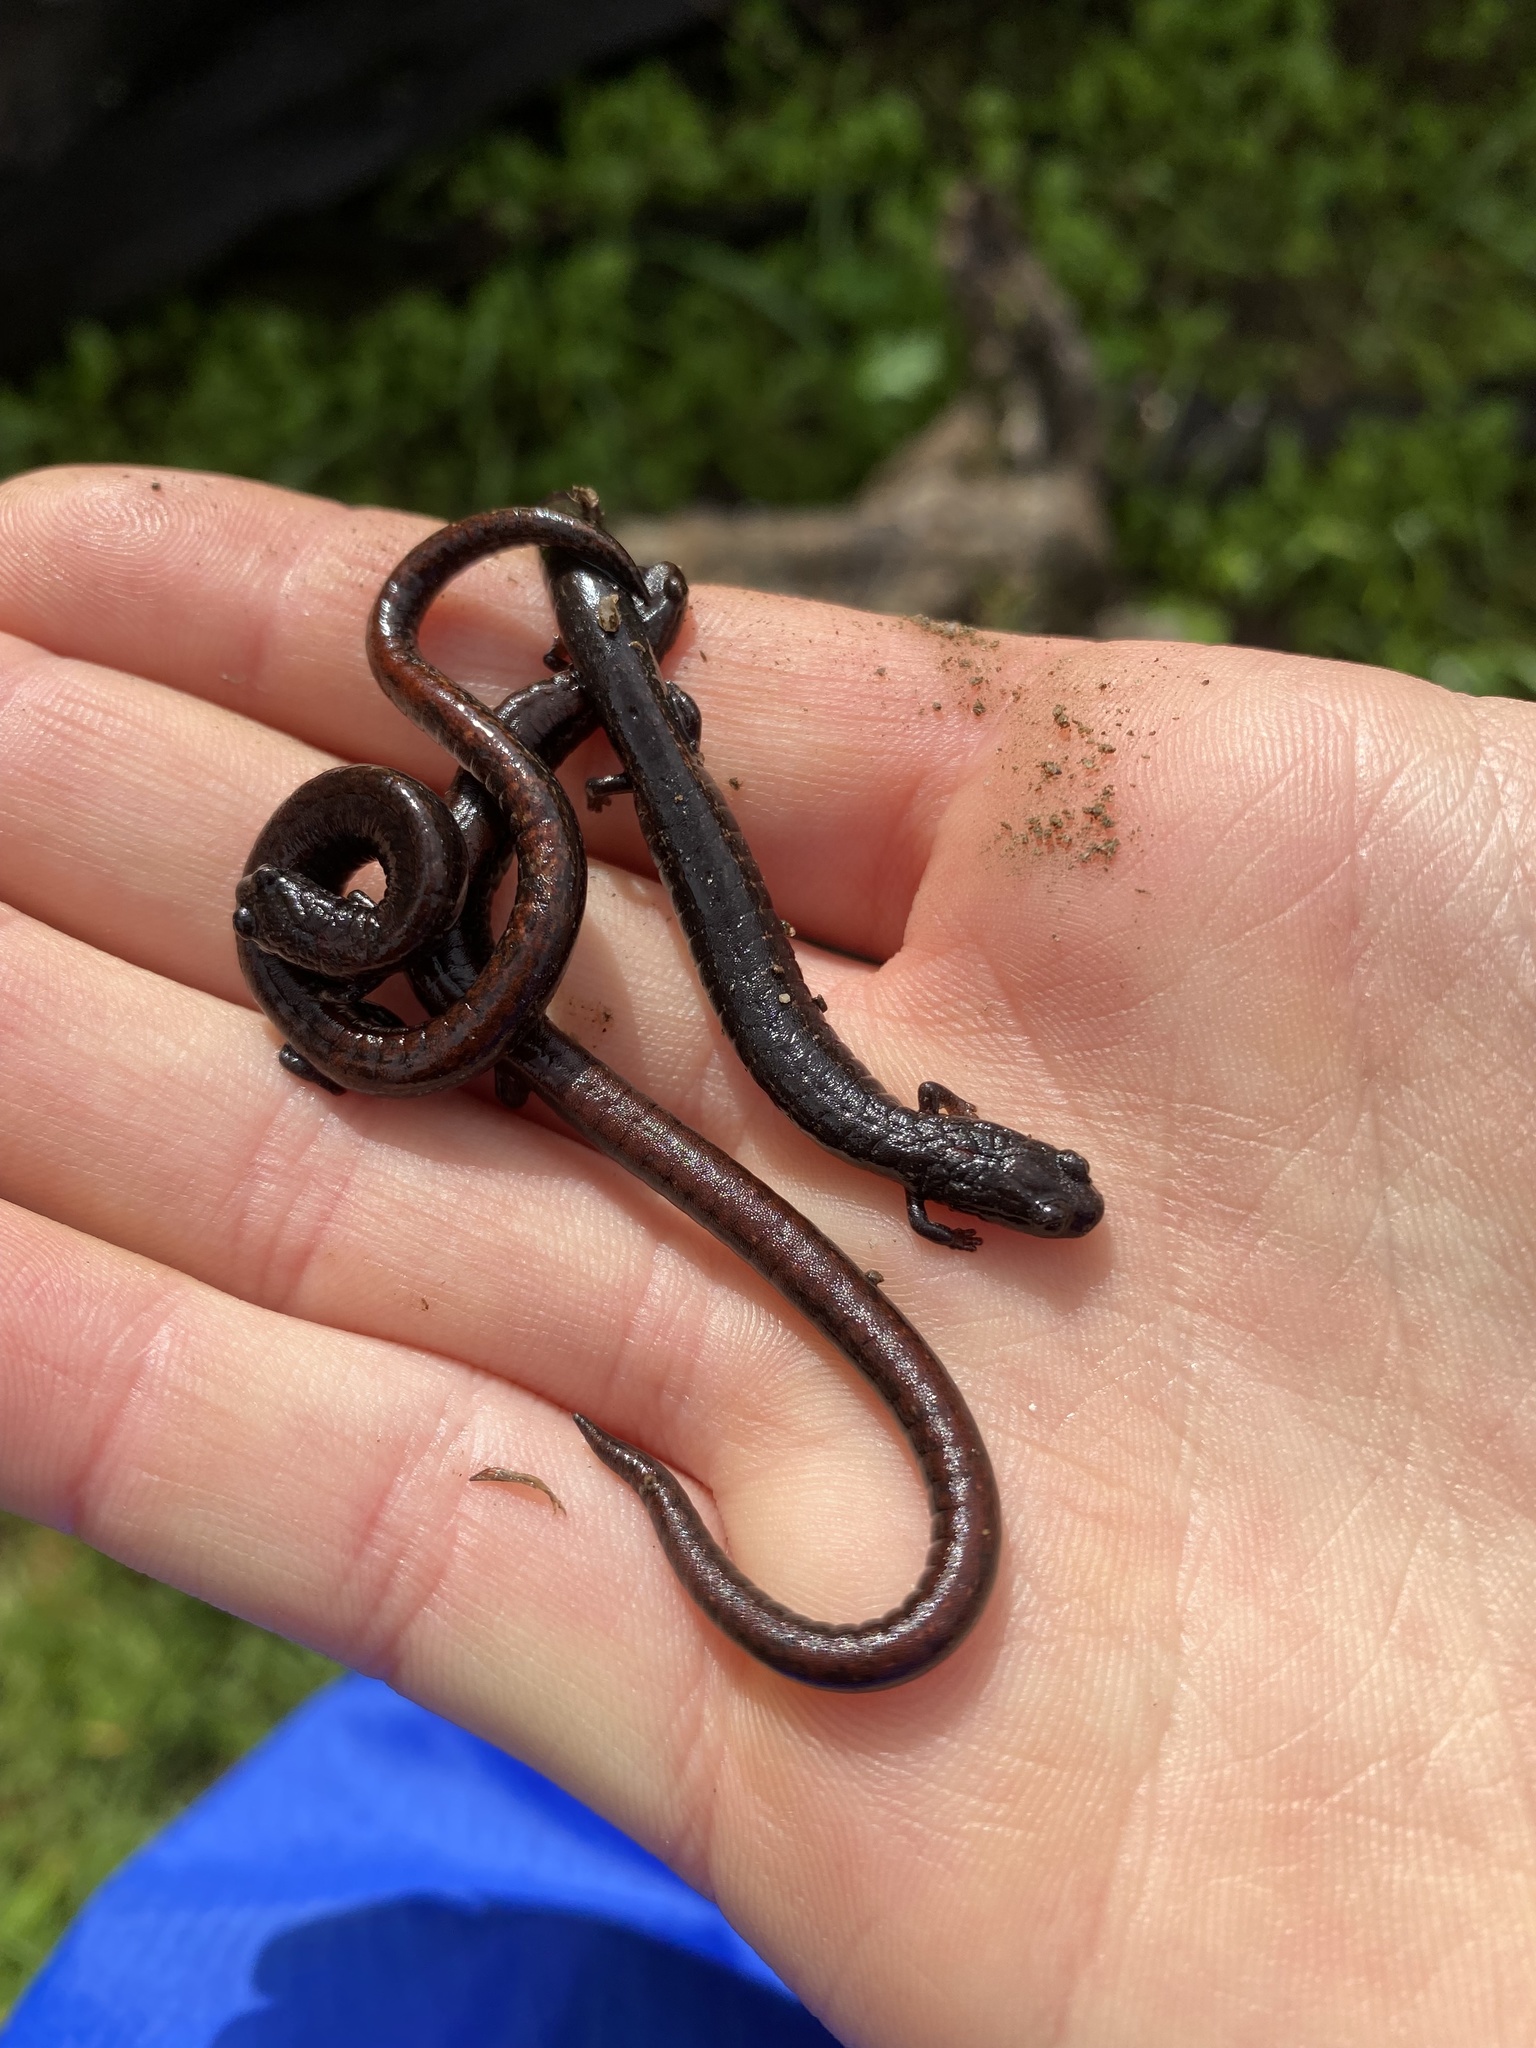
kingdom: Animalia
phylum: Chordata
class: Amphibia
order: Caudata
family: Plethodontidae
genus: Batrachoseps
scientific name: Batrachoseps attenuatus
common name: California slender salamander
